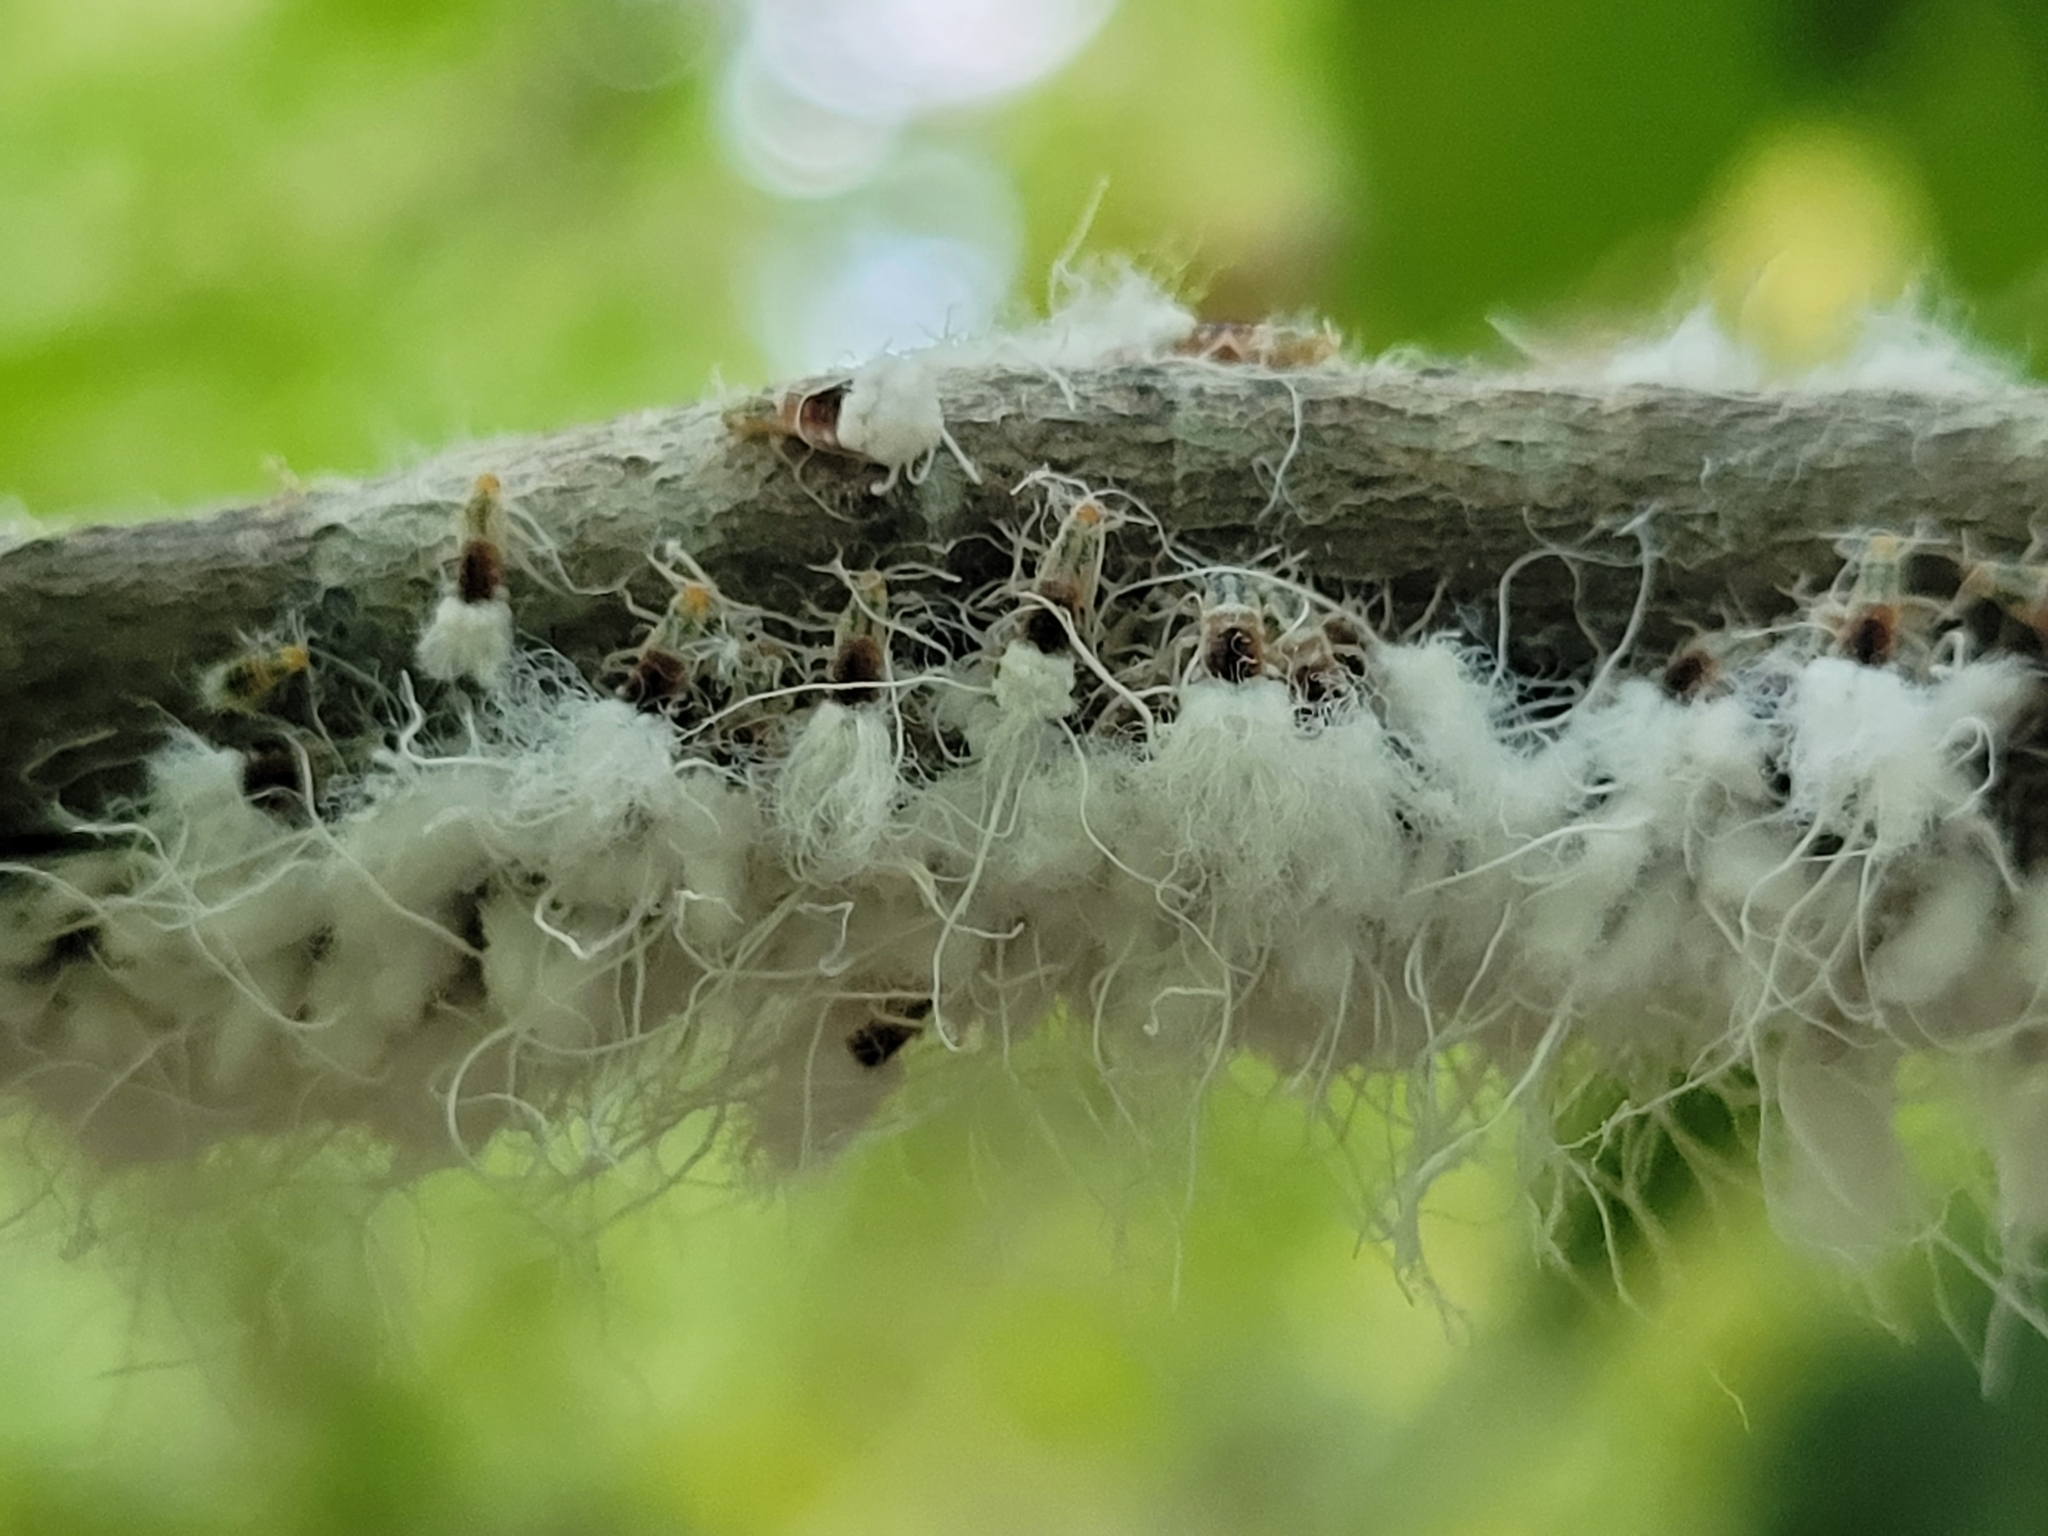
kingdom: Animalia
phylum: Arthropoda
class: Insecta
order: Hemiptera
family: Aphididae
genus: Grylloprociphilus
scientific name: Grylloprociphilus imbricator
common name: Beech blight aphid
